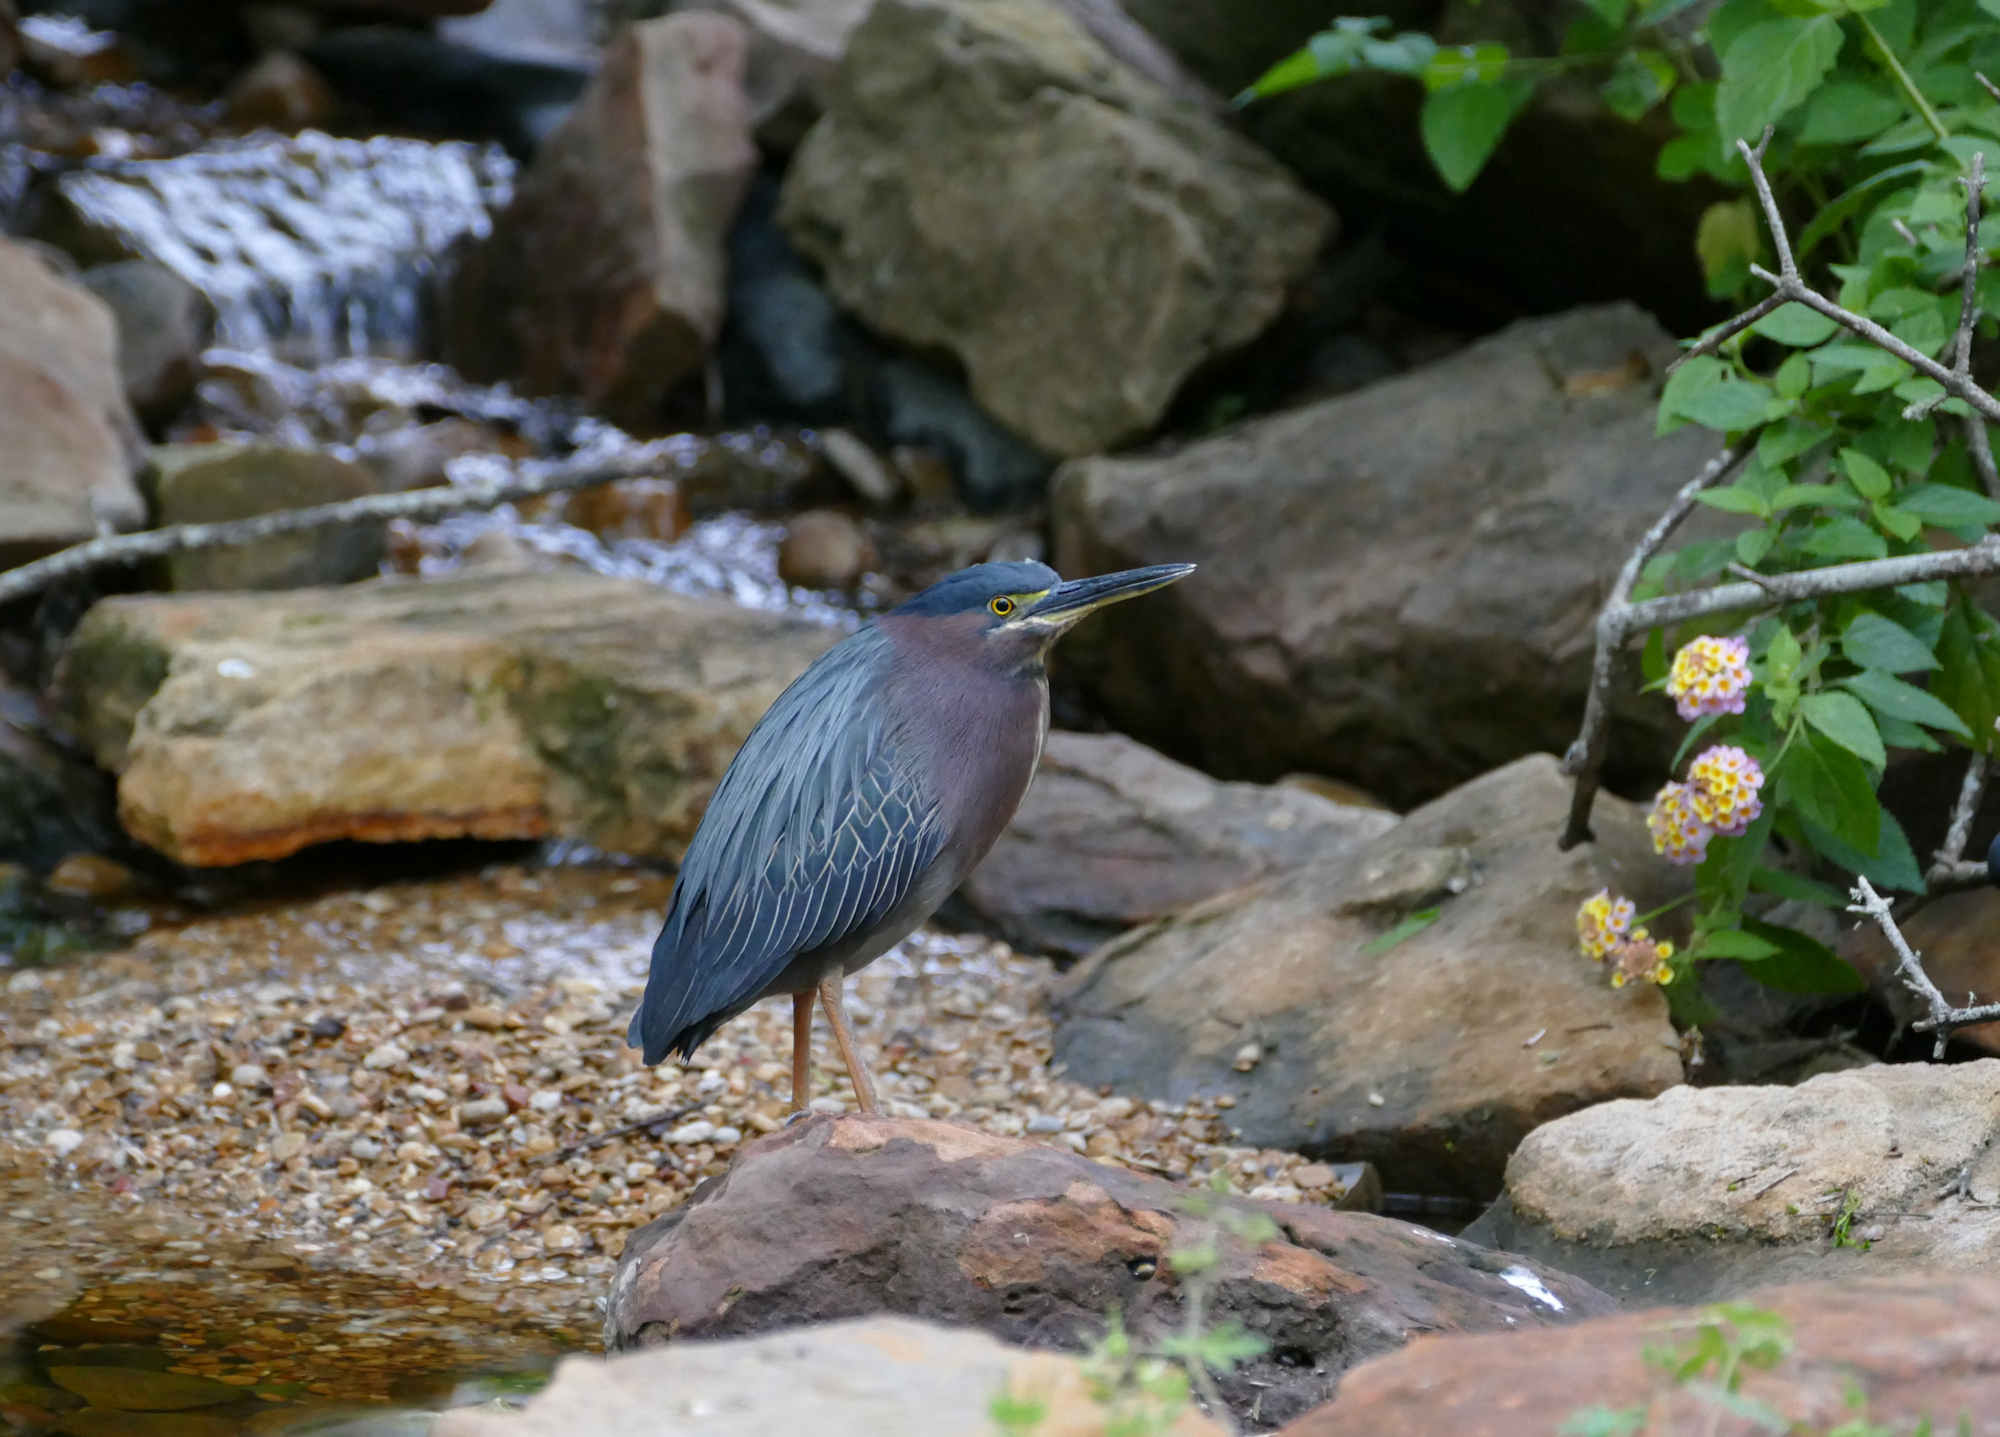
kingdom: Animalia
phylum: Chordata
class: Aves
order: Pelecaniformes
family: Ardeidae
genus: Butorides
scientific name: Butorides virescens
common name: Green heron
